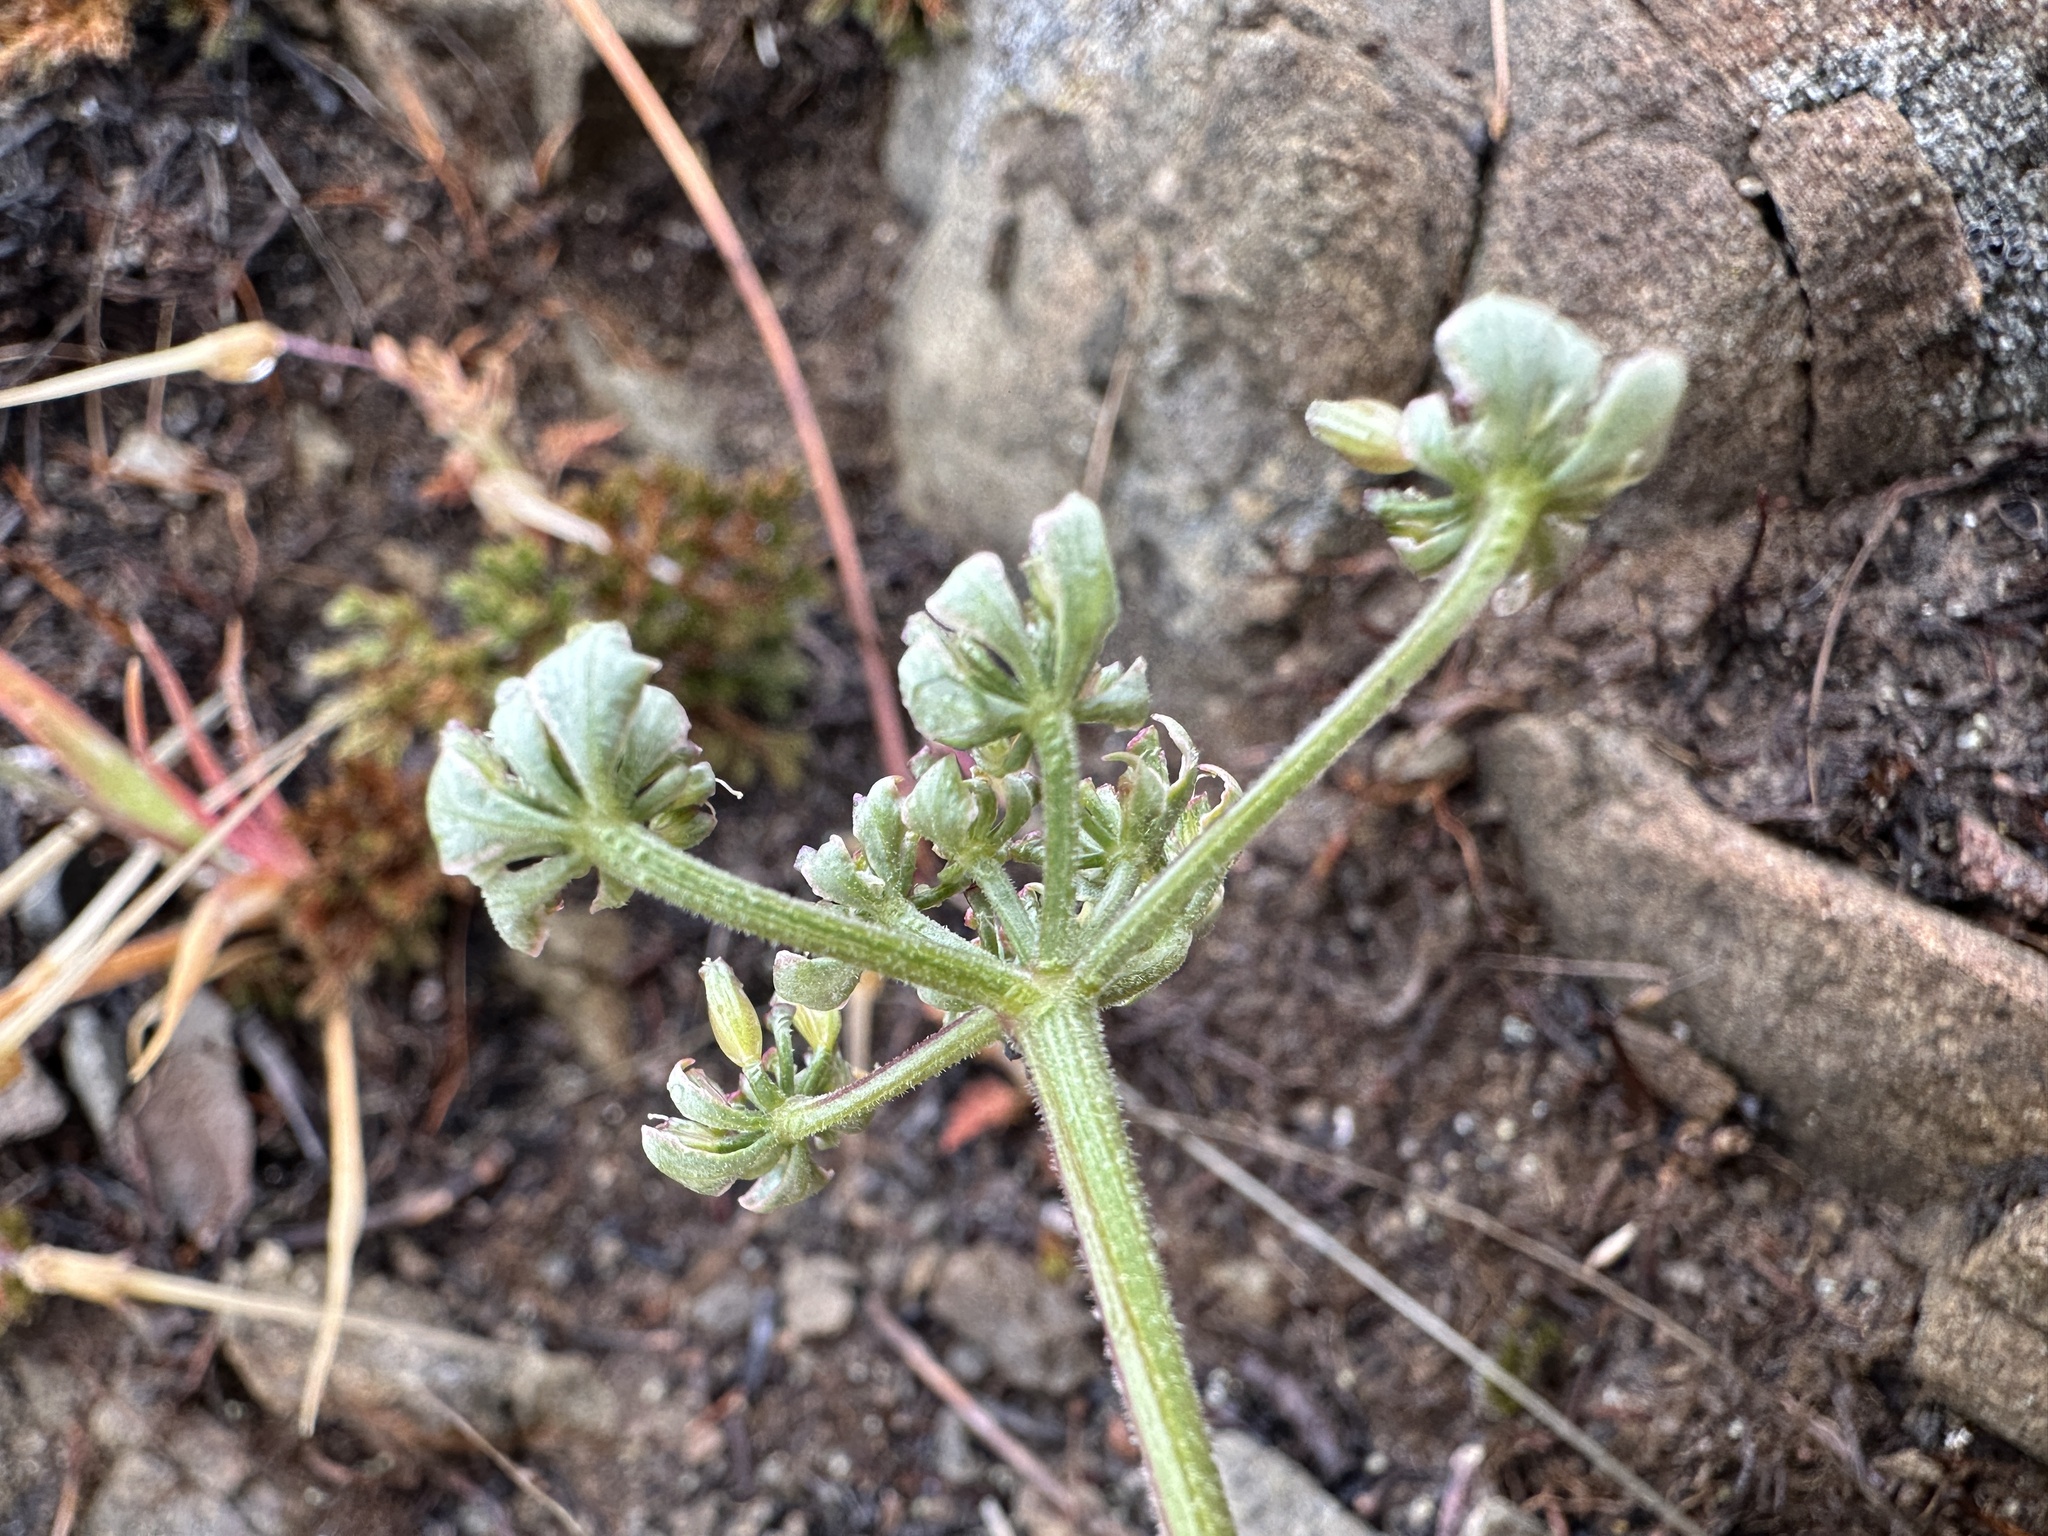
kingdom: Plantae
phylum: Tracheophyta
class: Magnoliopsida
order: Apiales
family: Apiaceae
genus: Lomatium
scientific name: Lomatium observatorium
